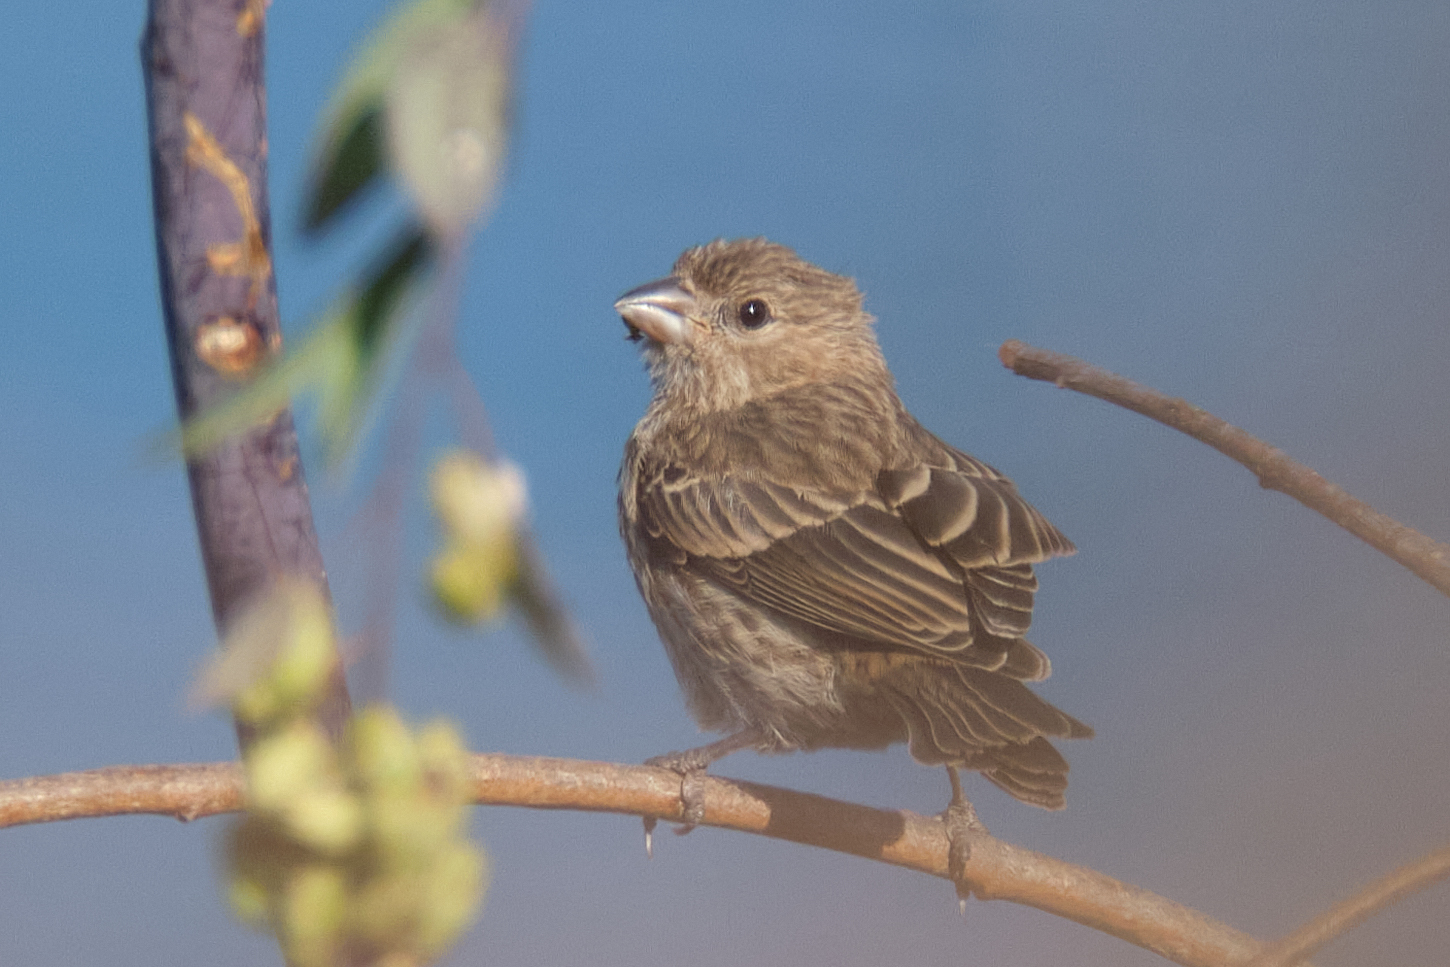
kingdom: Animalia
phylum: Chordata
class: Aves
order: Passeriformes
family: Fringillidae
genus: Haemorhous
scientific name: Haemorhous mexicanus
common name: House finch
